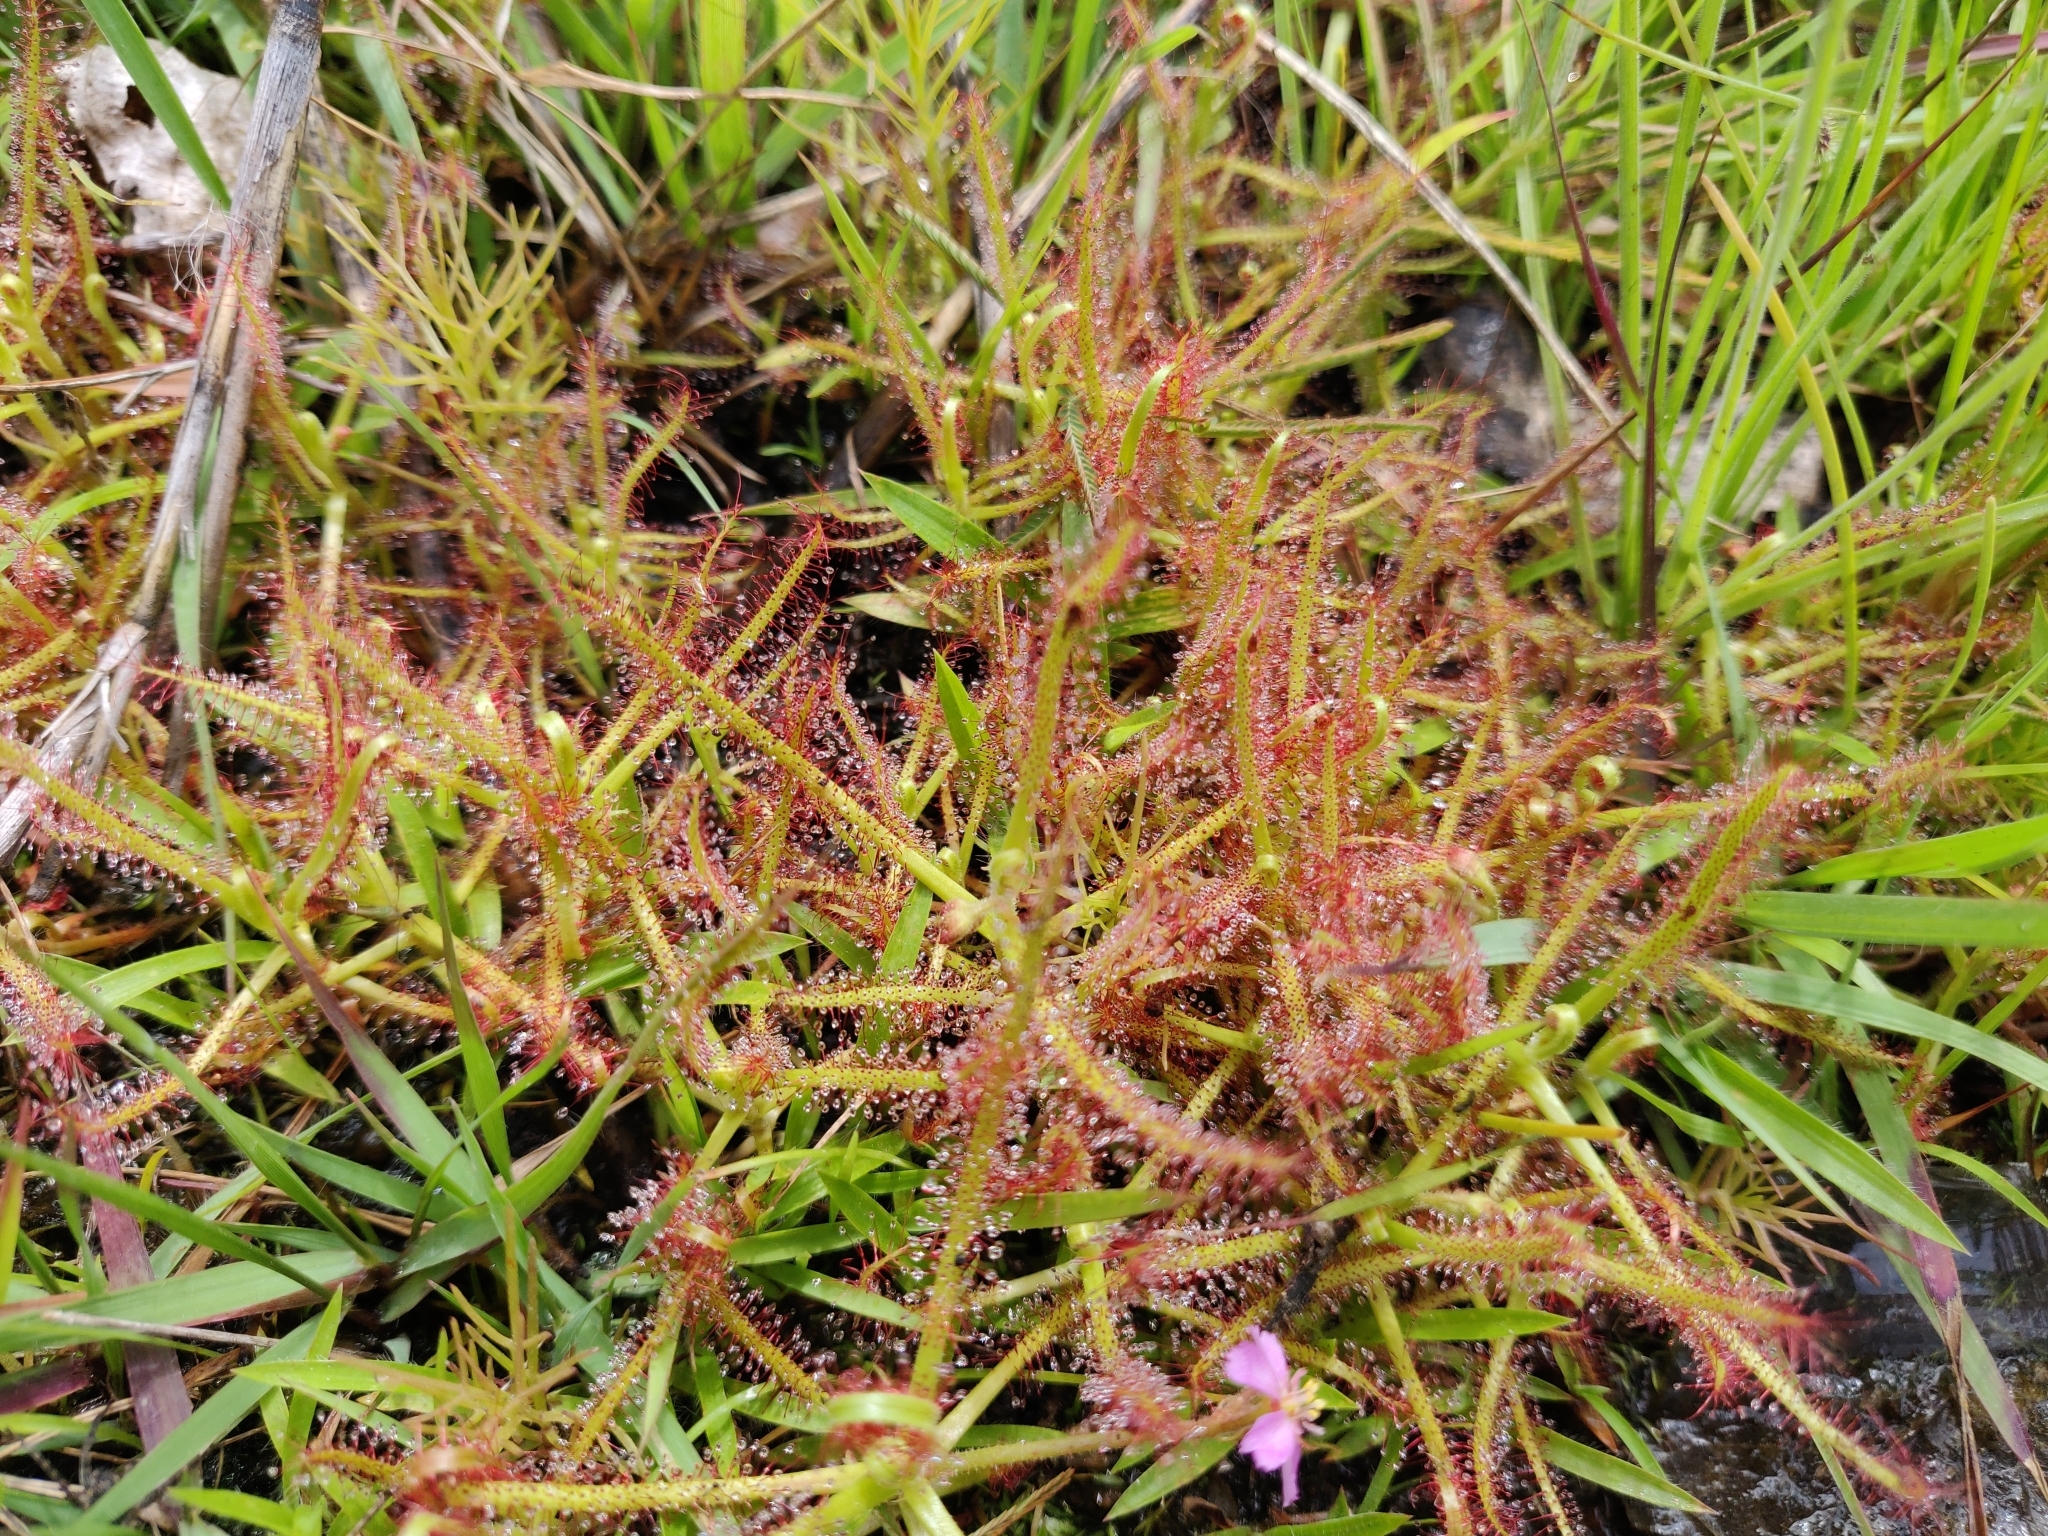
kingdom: Plantae
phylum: Tracheophyta
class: Magnoliopsida
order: Caryophyllales
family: Droseraceae
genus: Drosera
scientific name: Drosera indica
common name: Indian sundew
